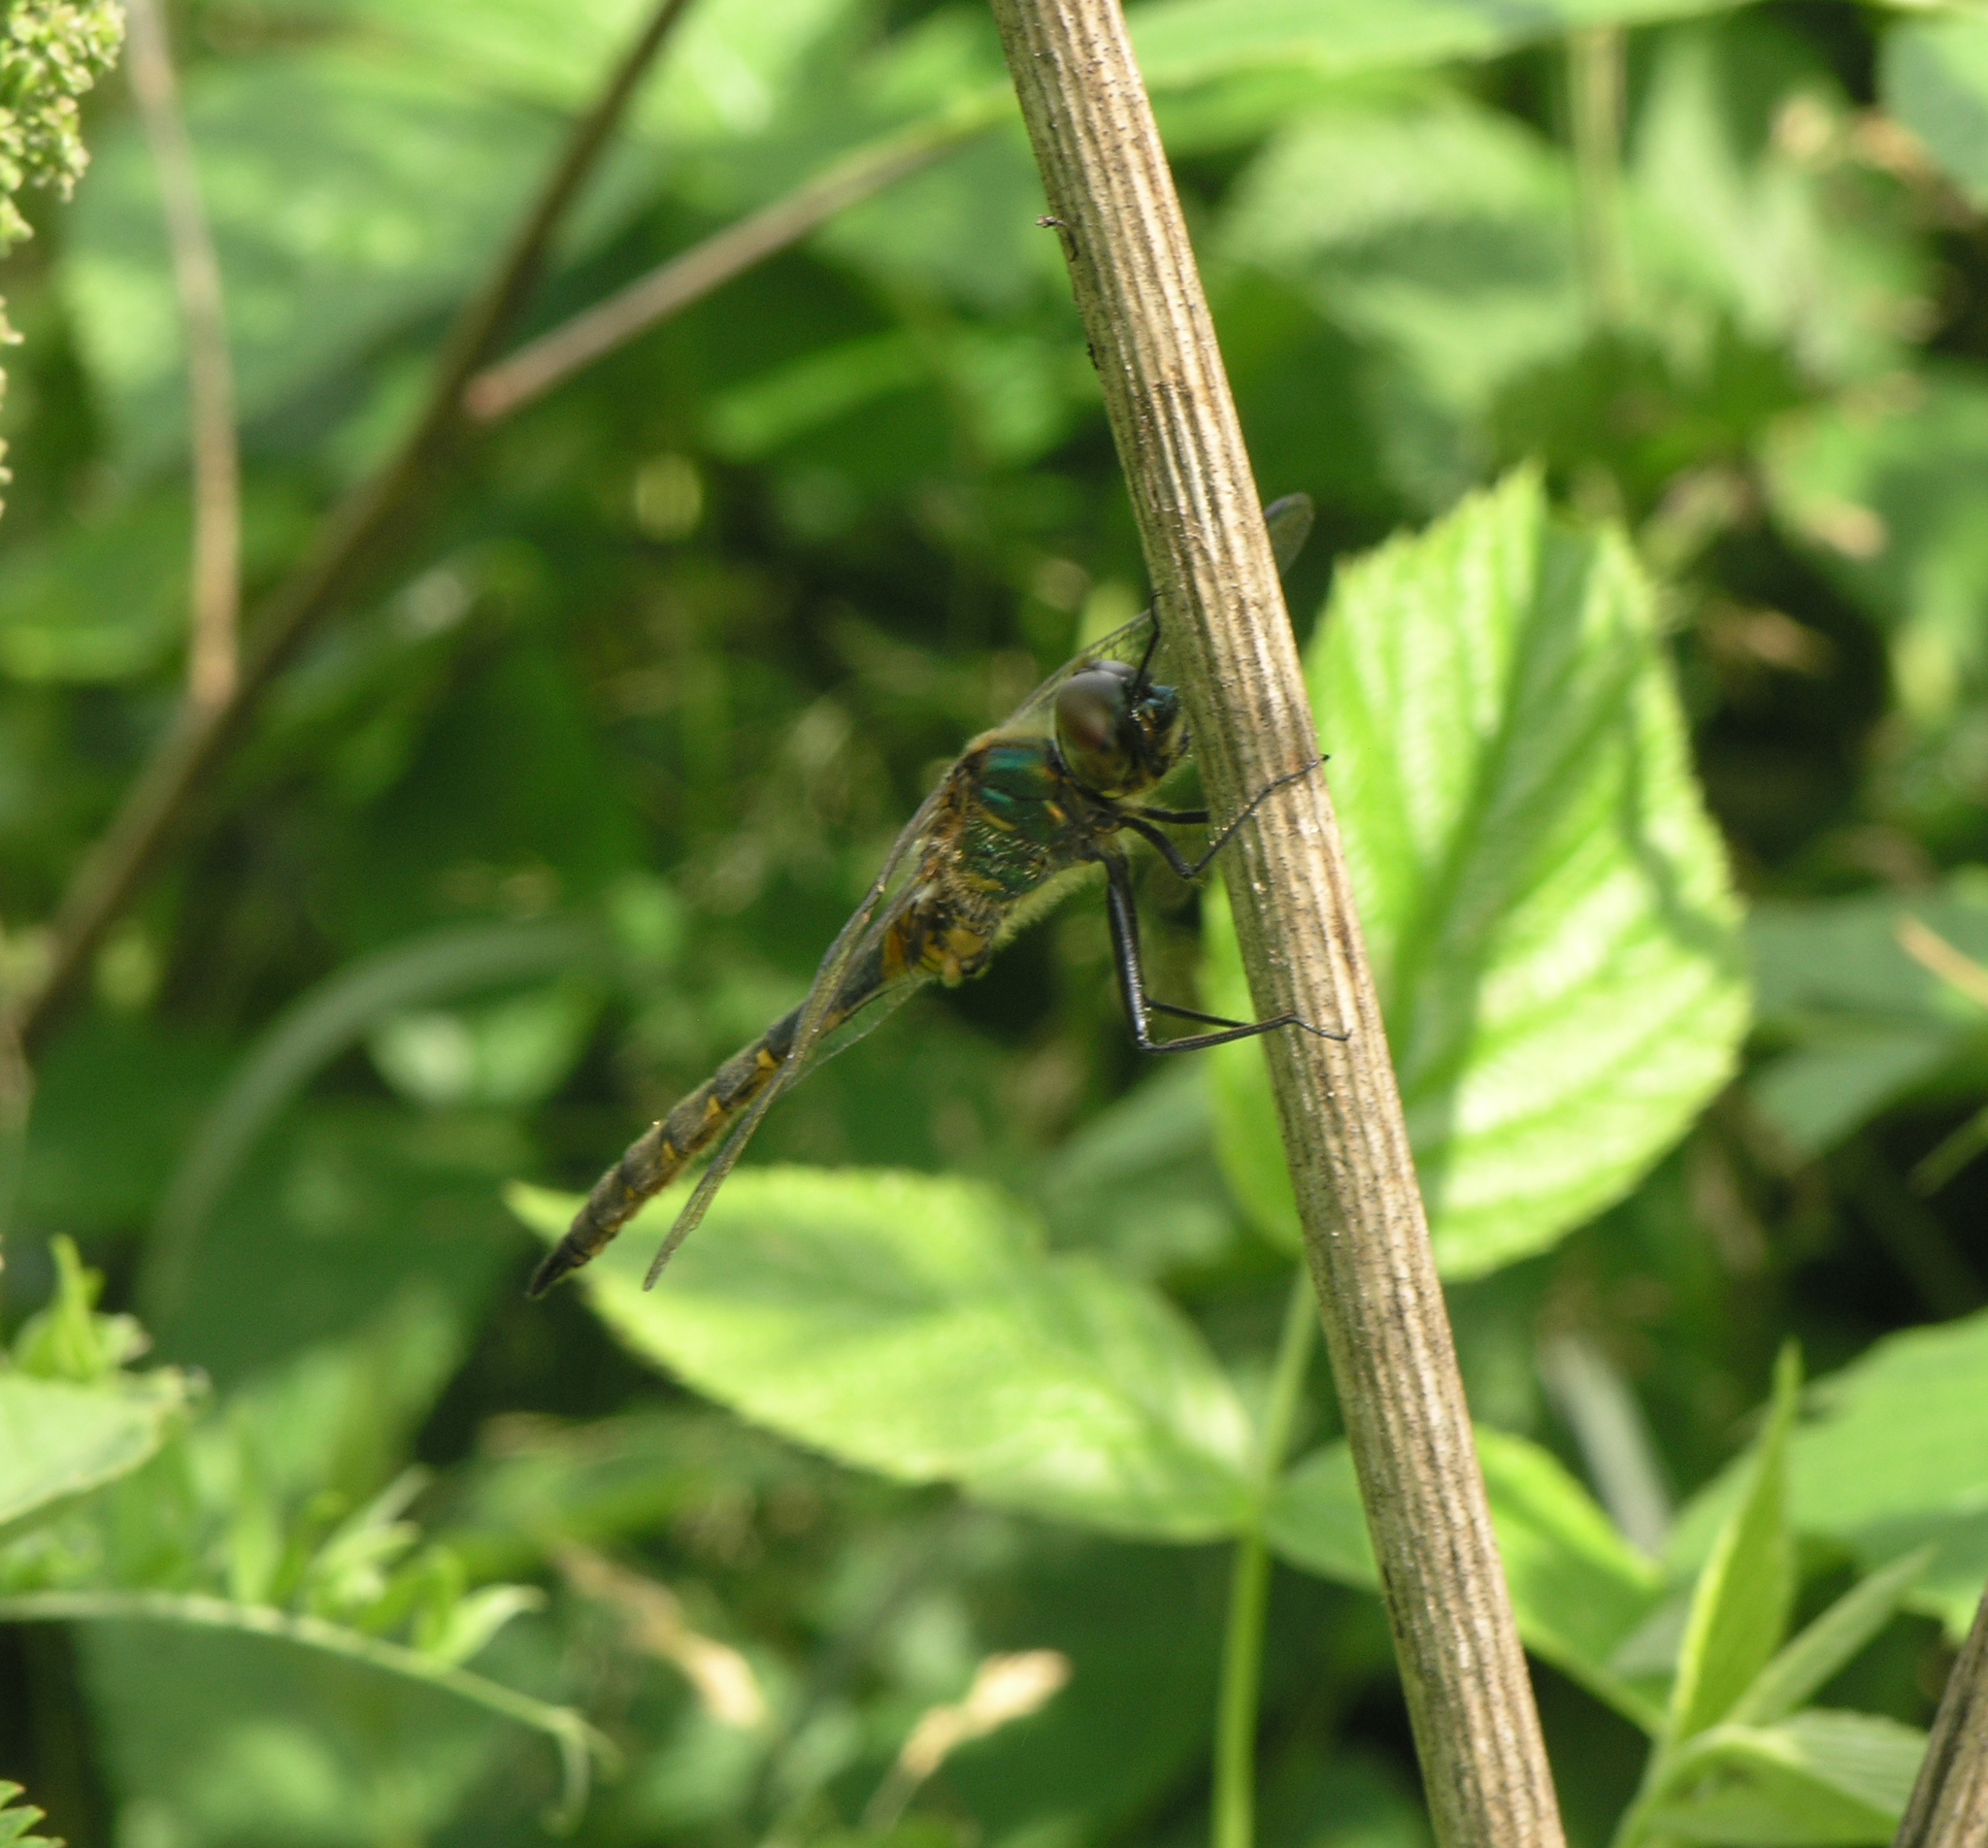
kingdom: Animalia
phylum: Arthropoda
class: Insecta
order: Odonata
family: Corduliidae
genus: Somatochlora
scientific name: Somatochlora flavomaculata
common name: Yellow-spotted emerald
